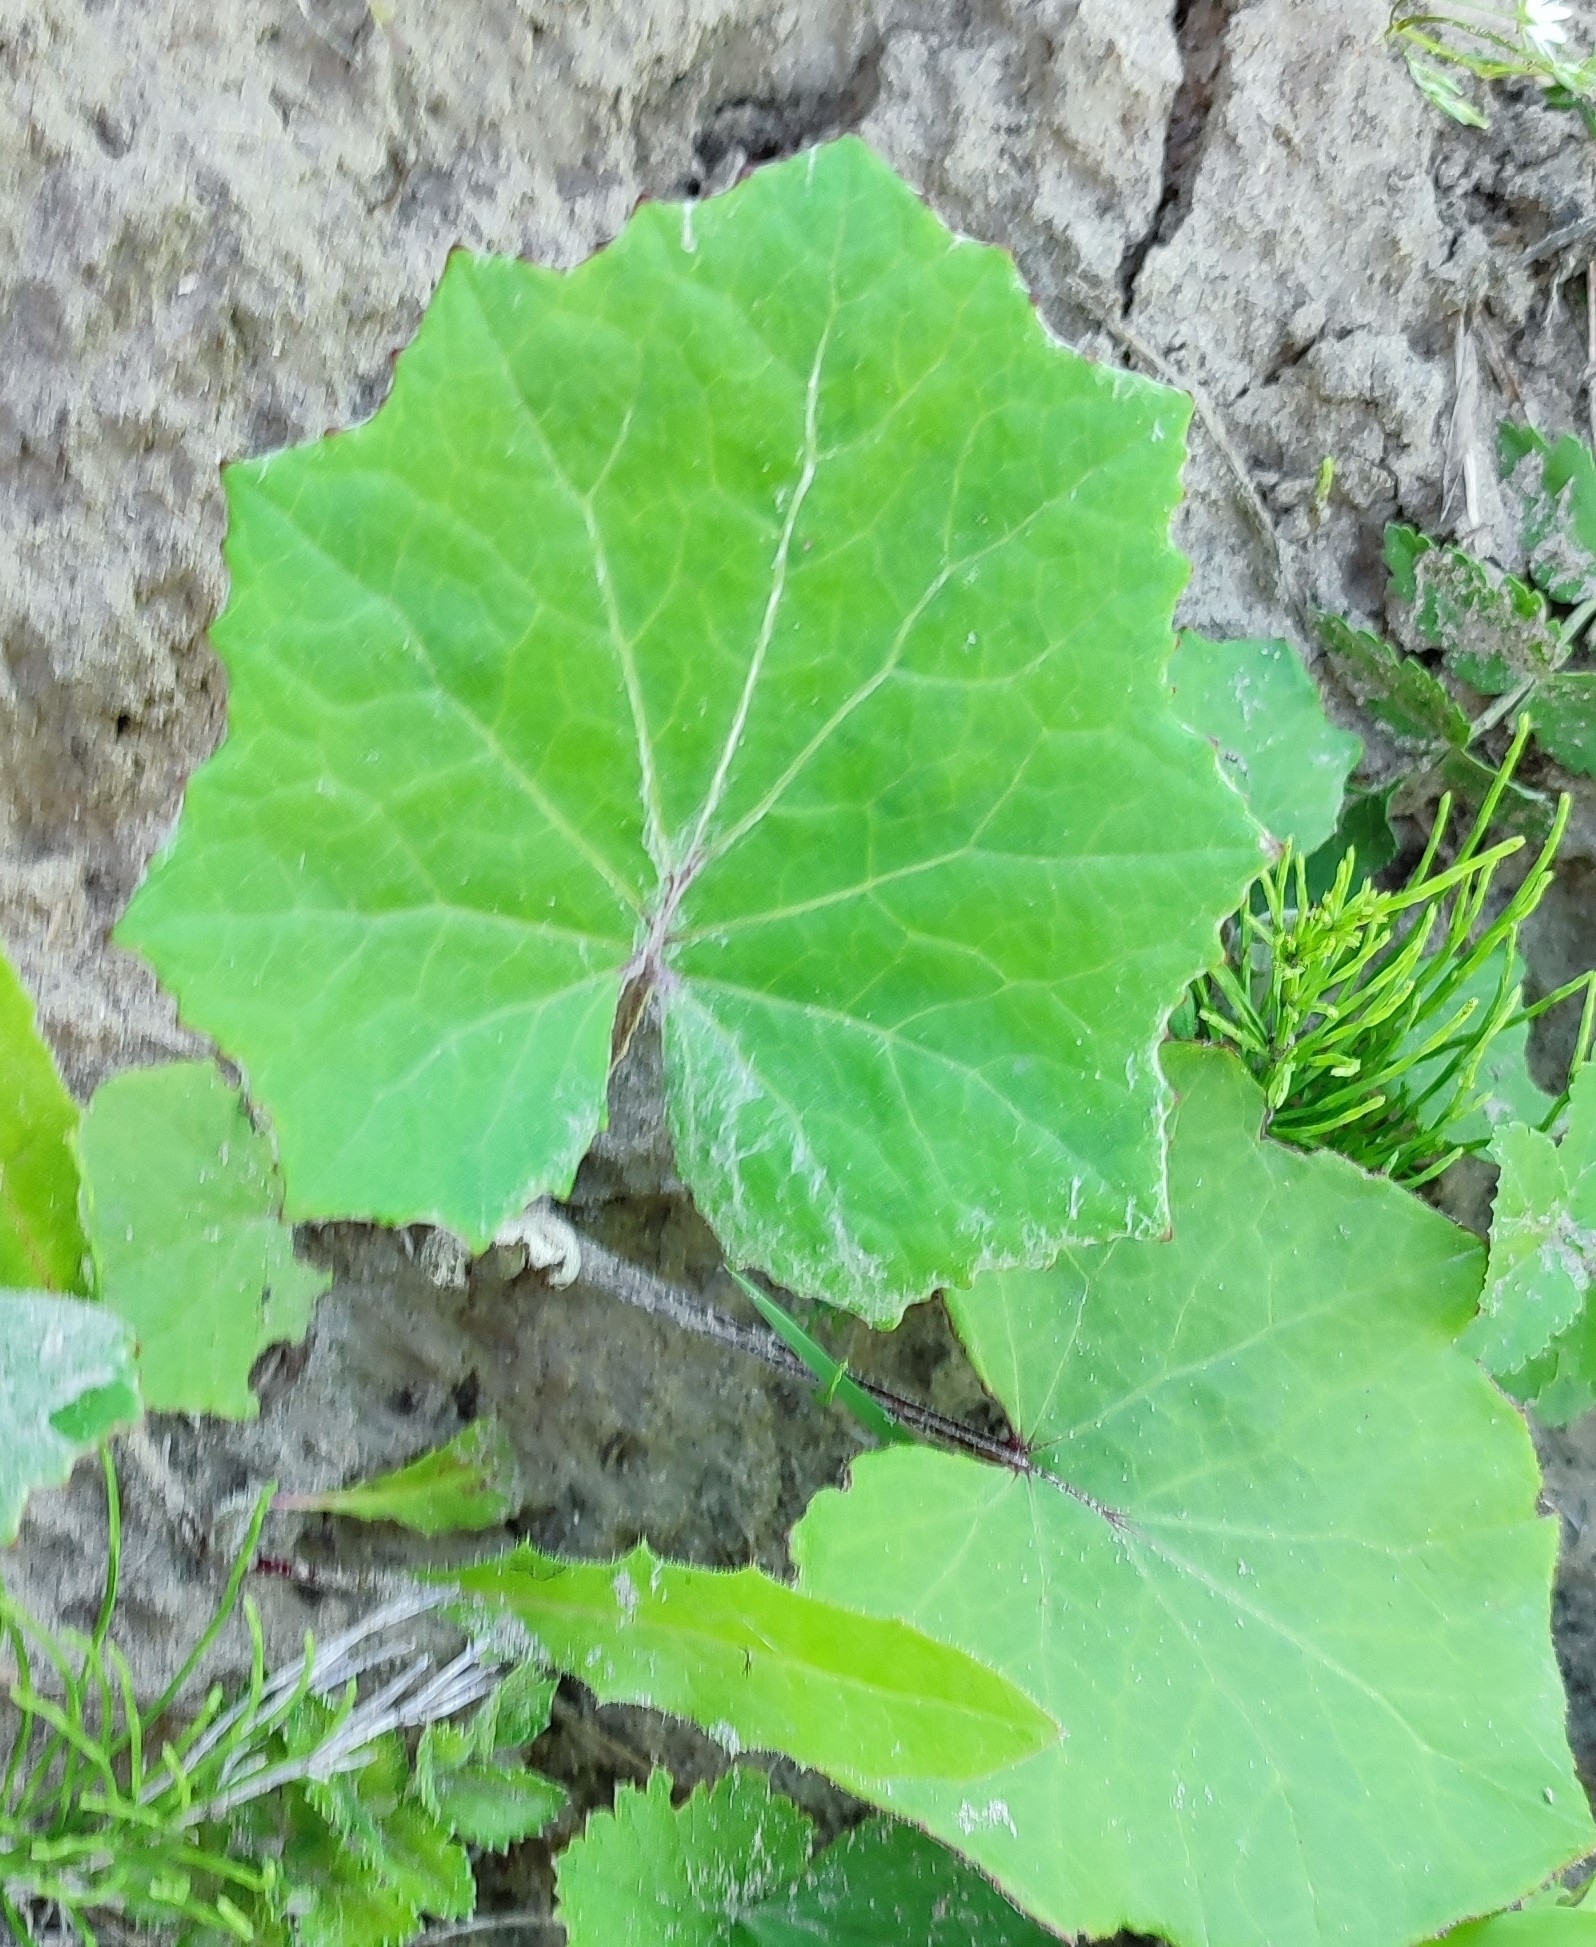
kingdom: Plantae
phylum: Tracheophyta
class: Magnoliopsida
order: Asterales
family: Asteraceae
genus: Tussilago
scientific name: Tussilago farfara
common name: Coltsfoot
